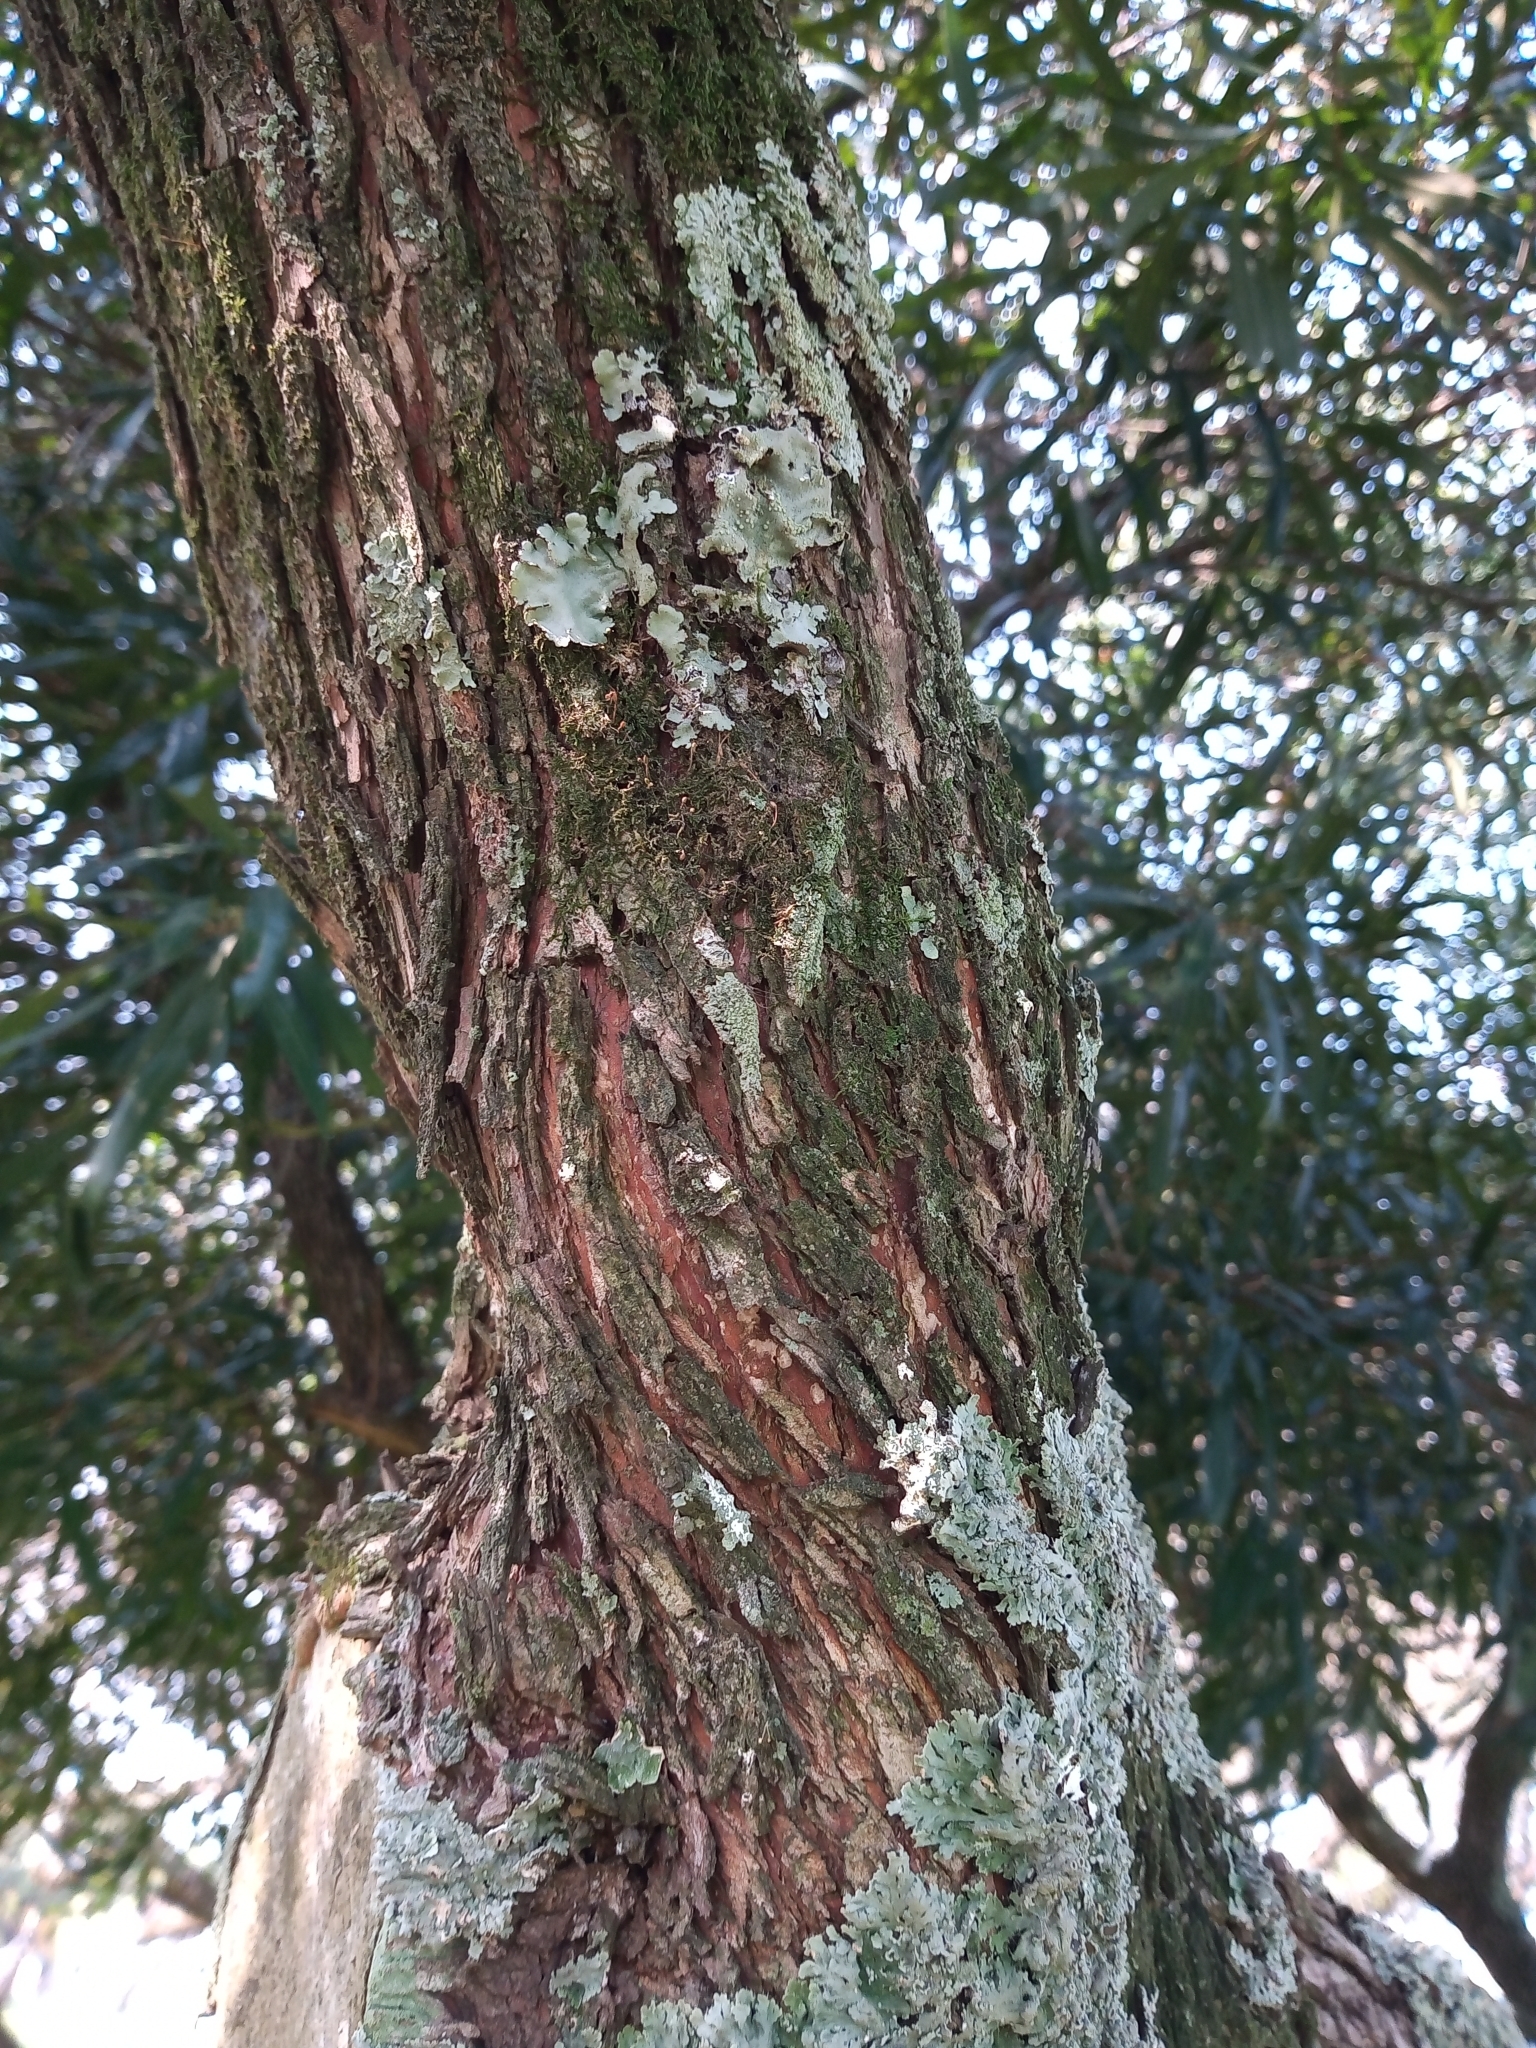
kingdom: Plantae
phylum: Tracheophyta
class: Magnoliopsida
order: Ericales
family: Sapotaceae
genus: Labatia
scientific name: Labatia salicifolia
